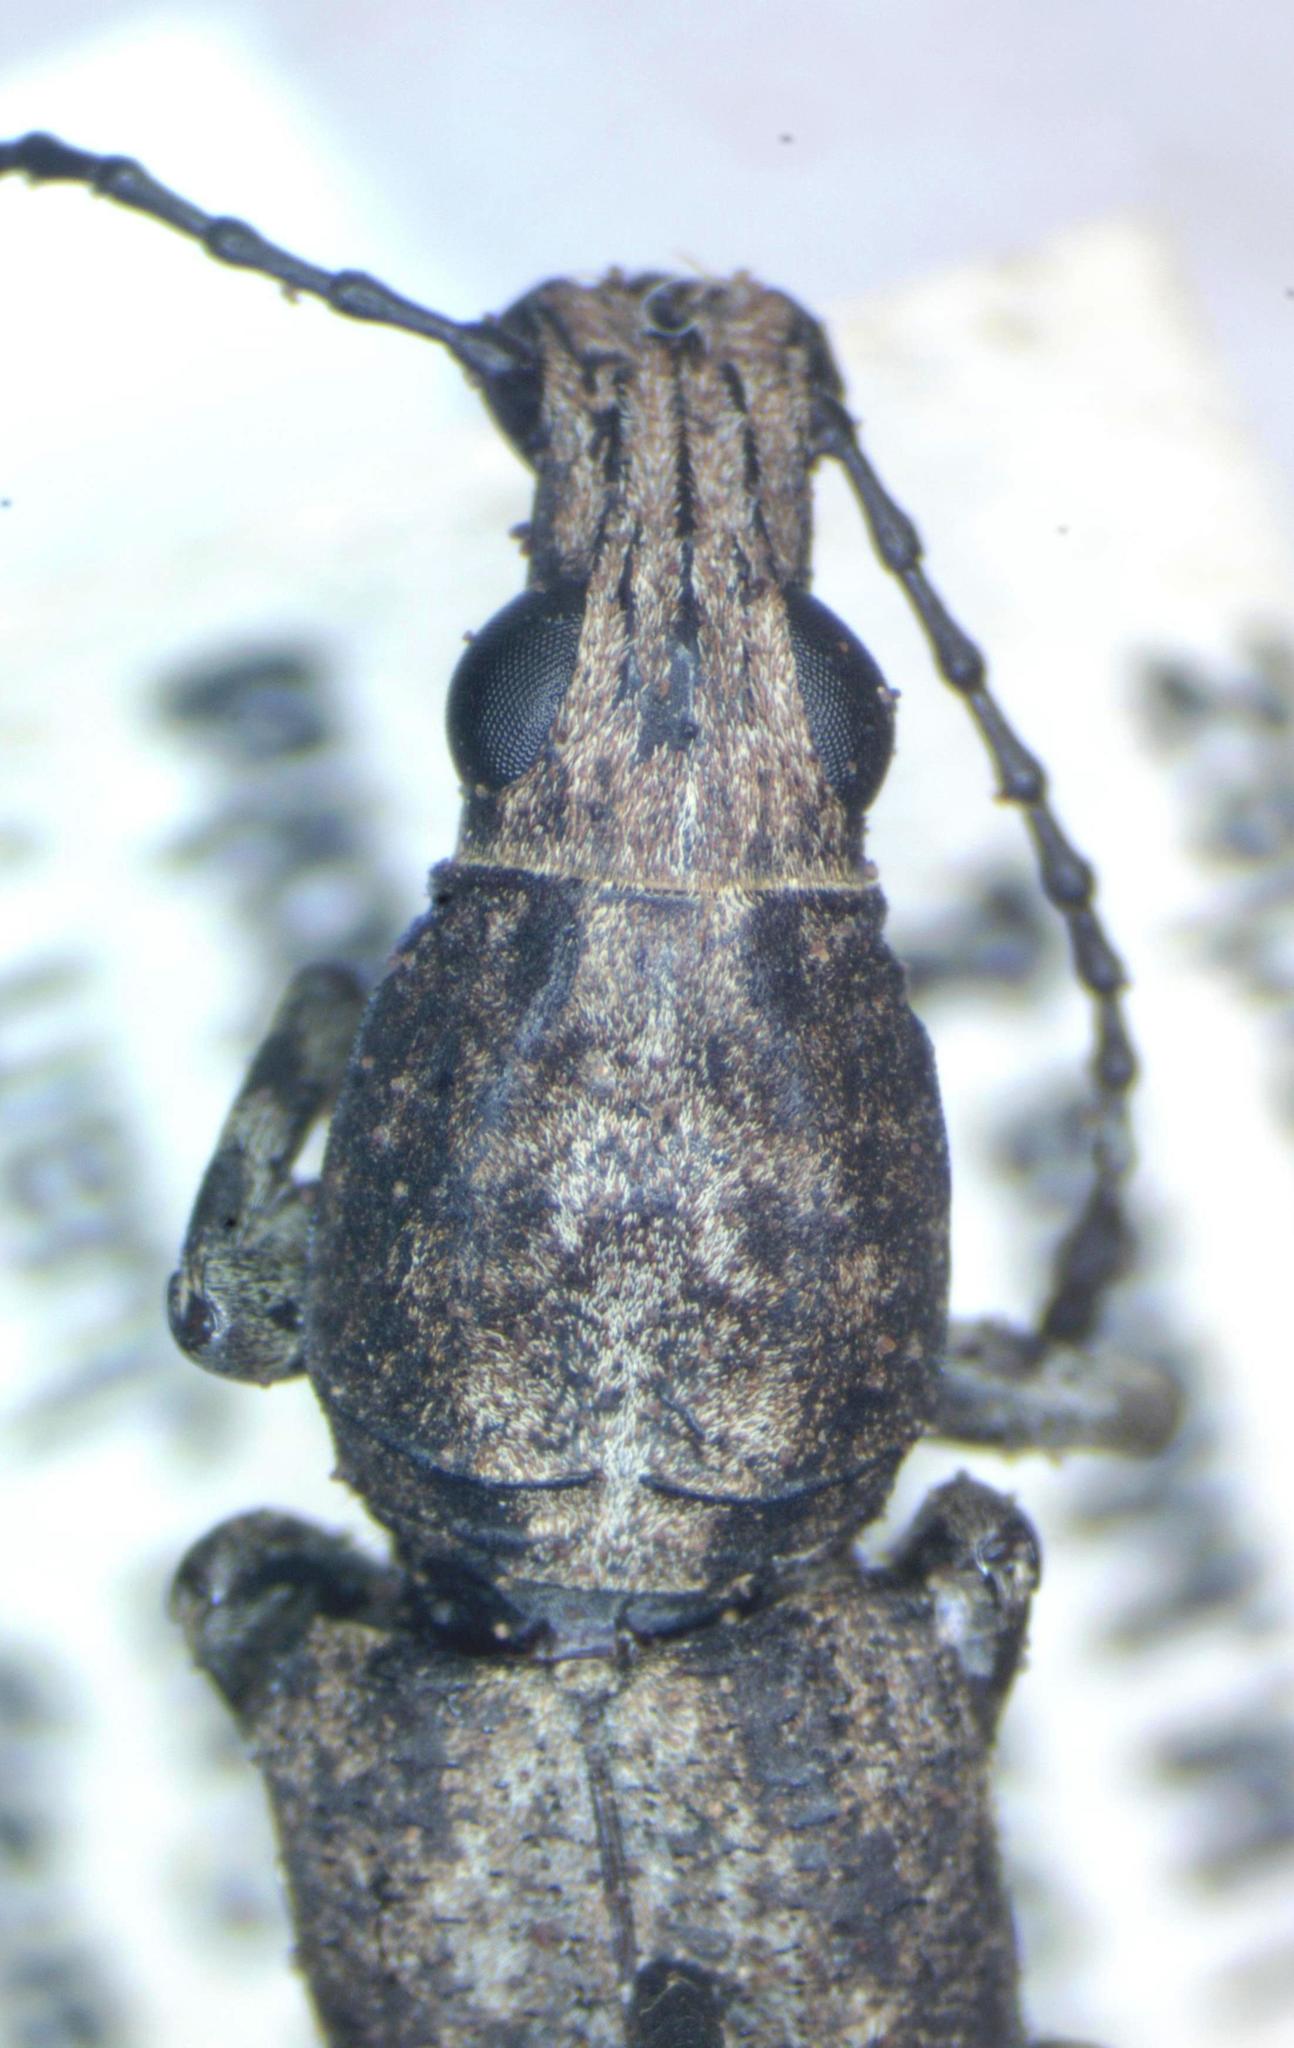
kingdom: Animalia
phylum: Arthropoda
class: Insecta
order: Coleoptera
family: Anthribidae
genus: Ptychoderes
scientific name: Ptychoderes nebulosus
